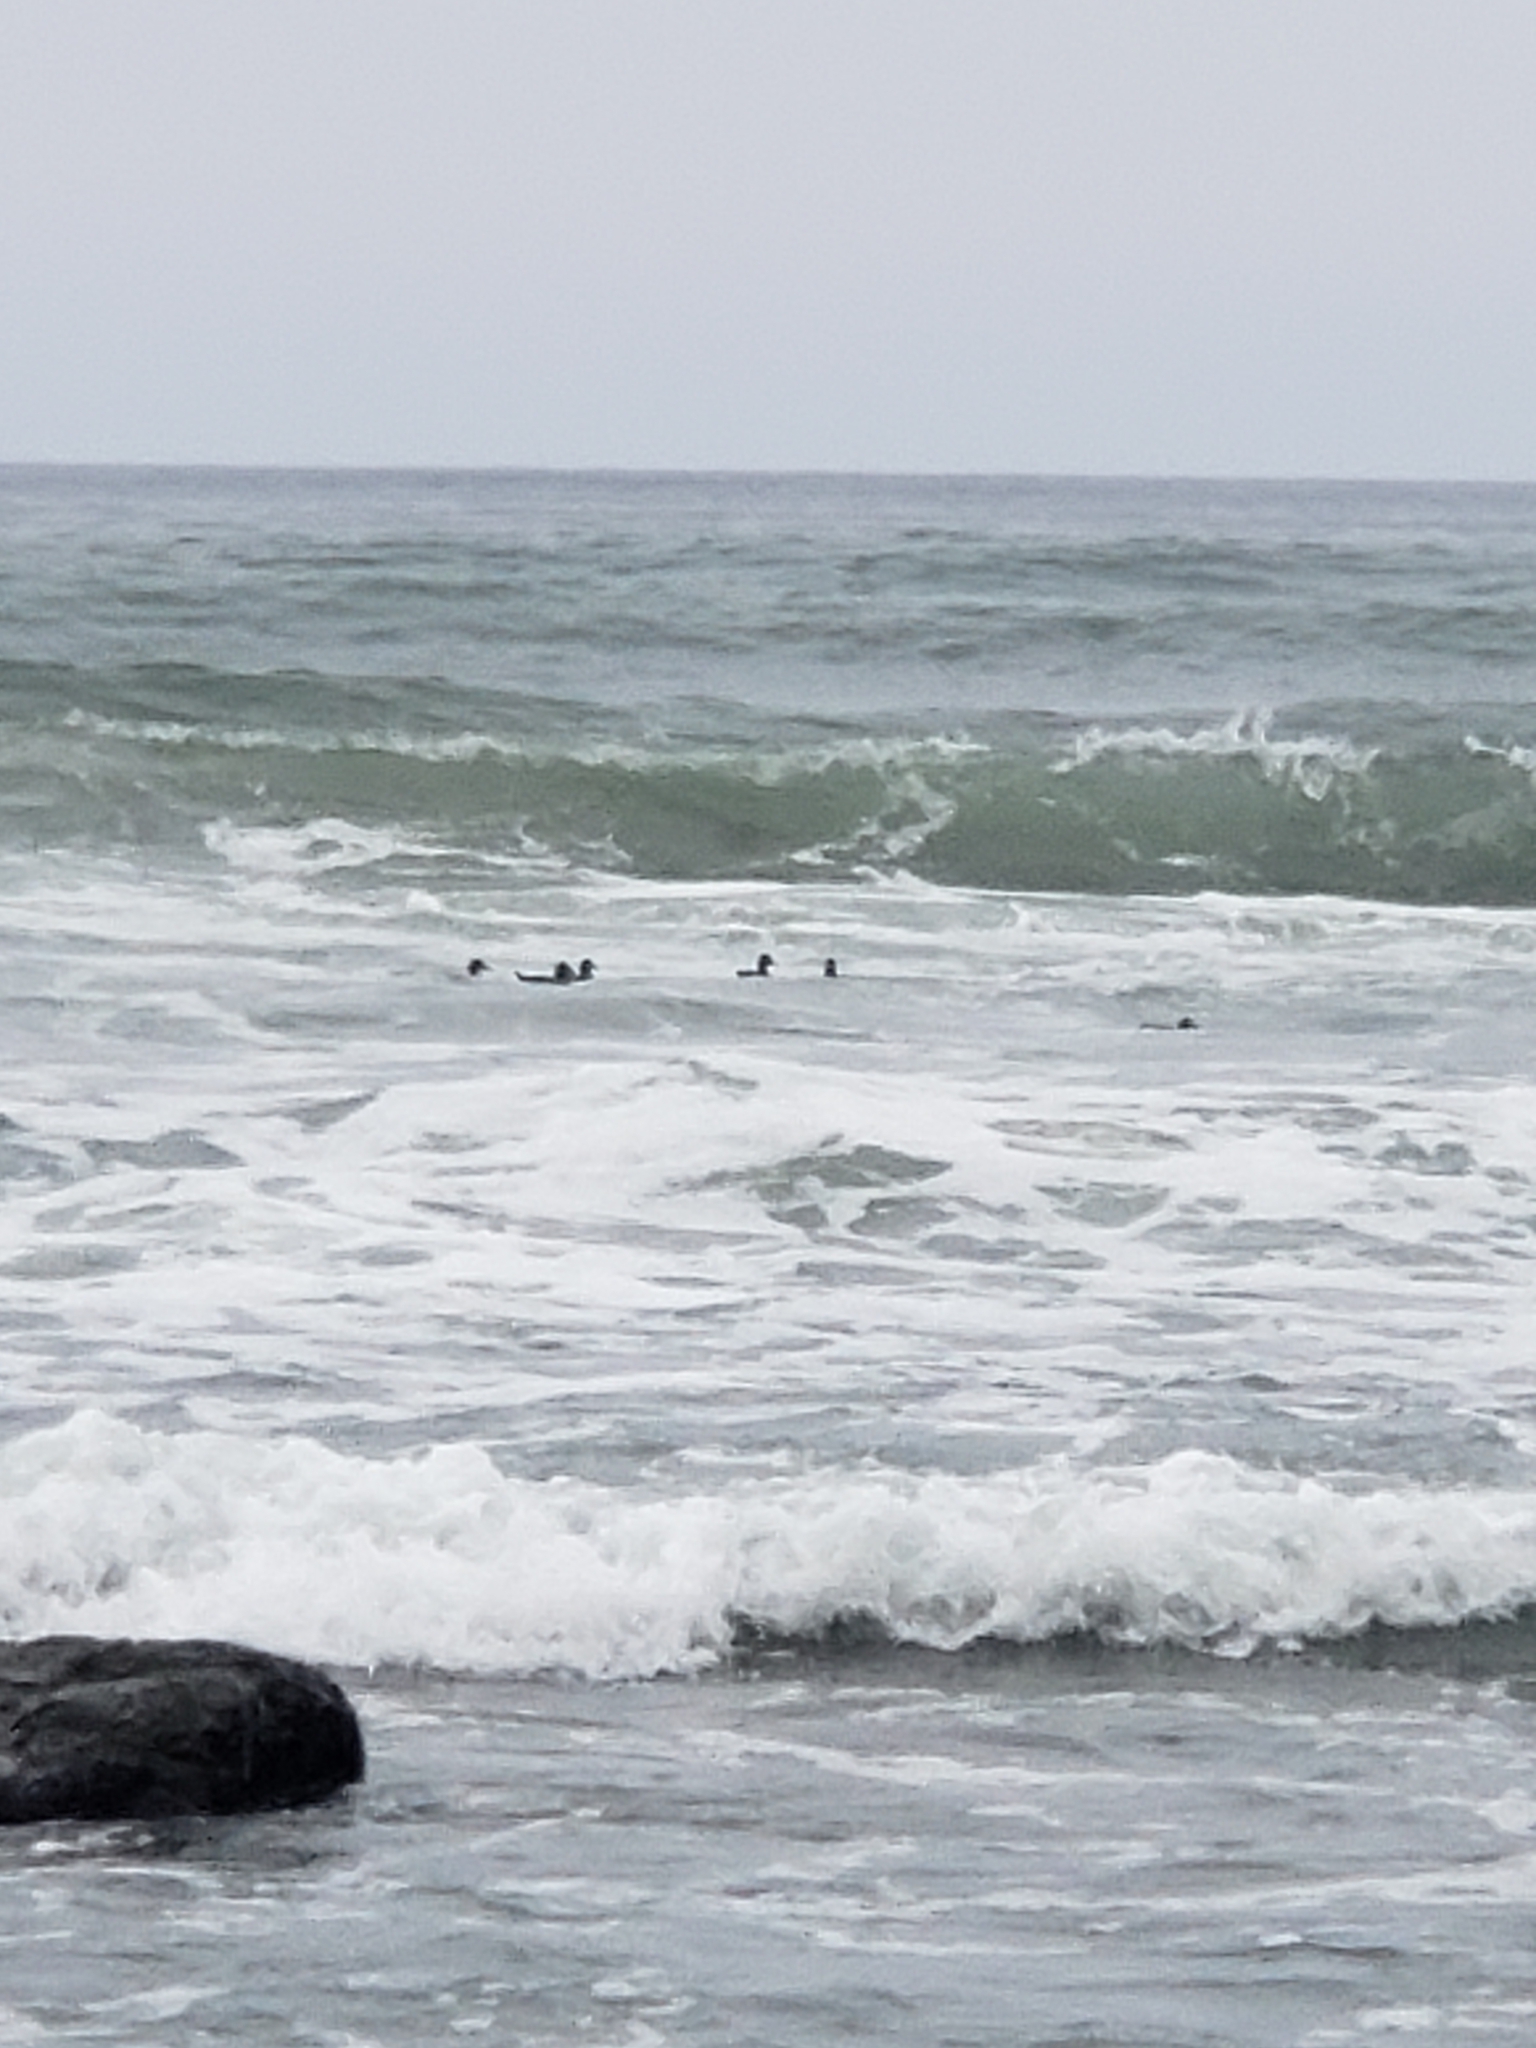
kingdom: Animalia
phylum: Chordata
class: Aves
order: Anseriformes
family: Anatidae
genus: Melanitta
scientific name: Melanitta perspicillata
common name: Surf scoter
